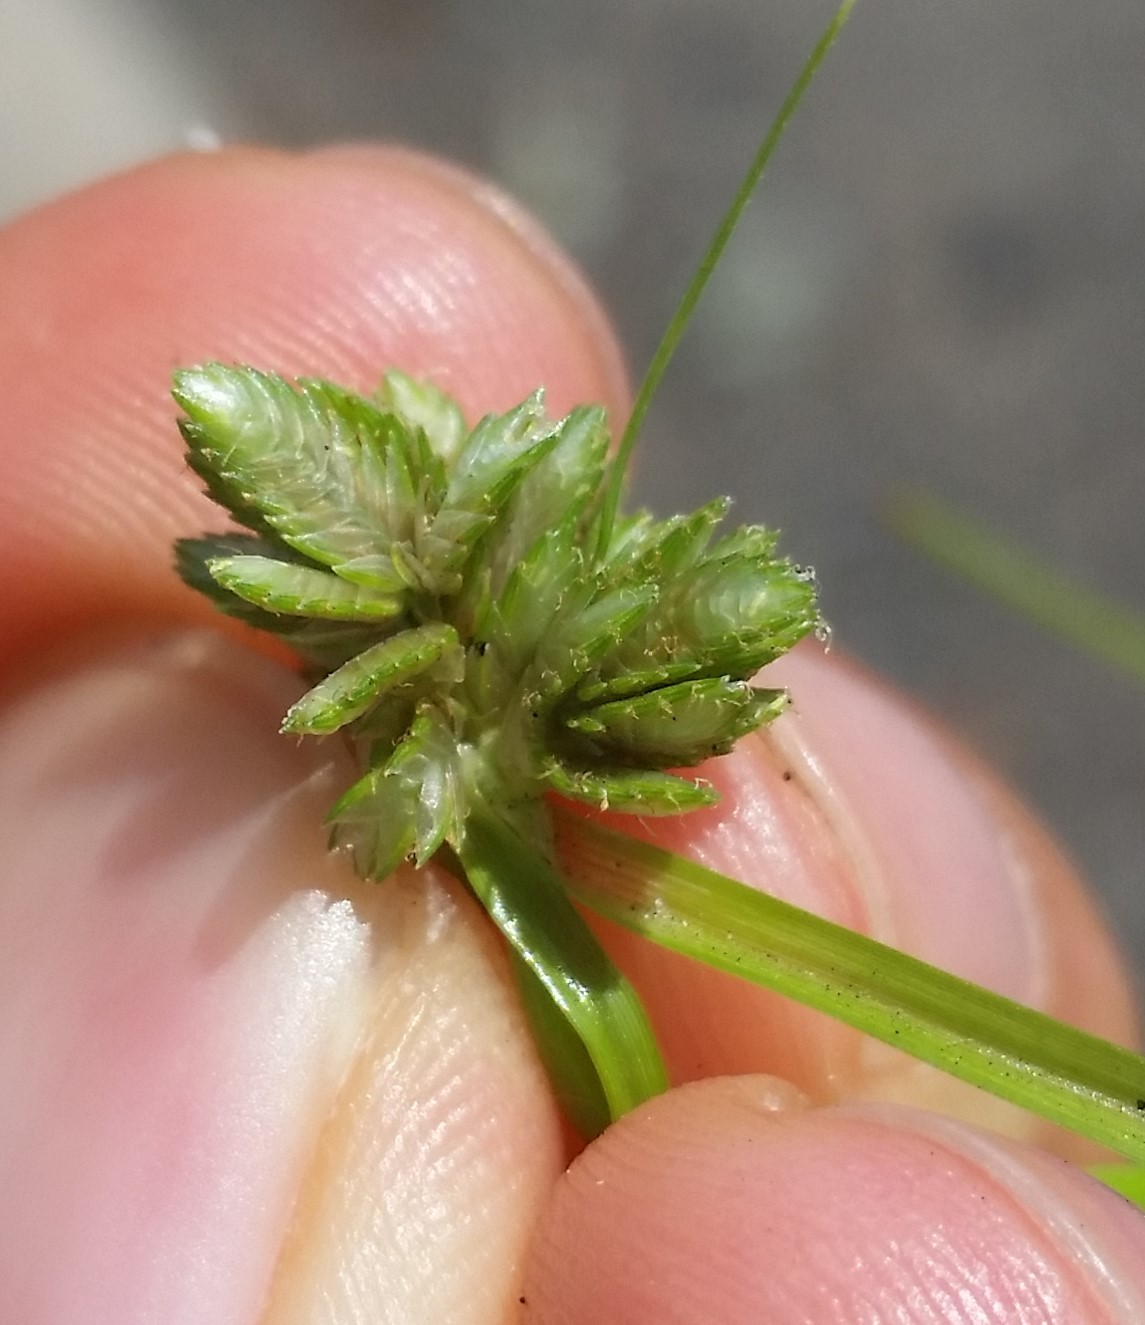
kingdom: Plantae
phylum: Tracheophyta
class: Liliopsida
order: Poales
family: Cyperaceae
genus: Cyperus
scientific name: Cyperus nipponicus
